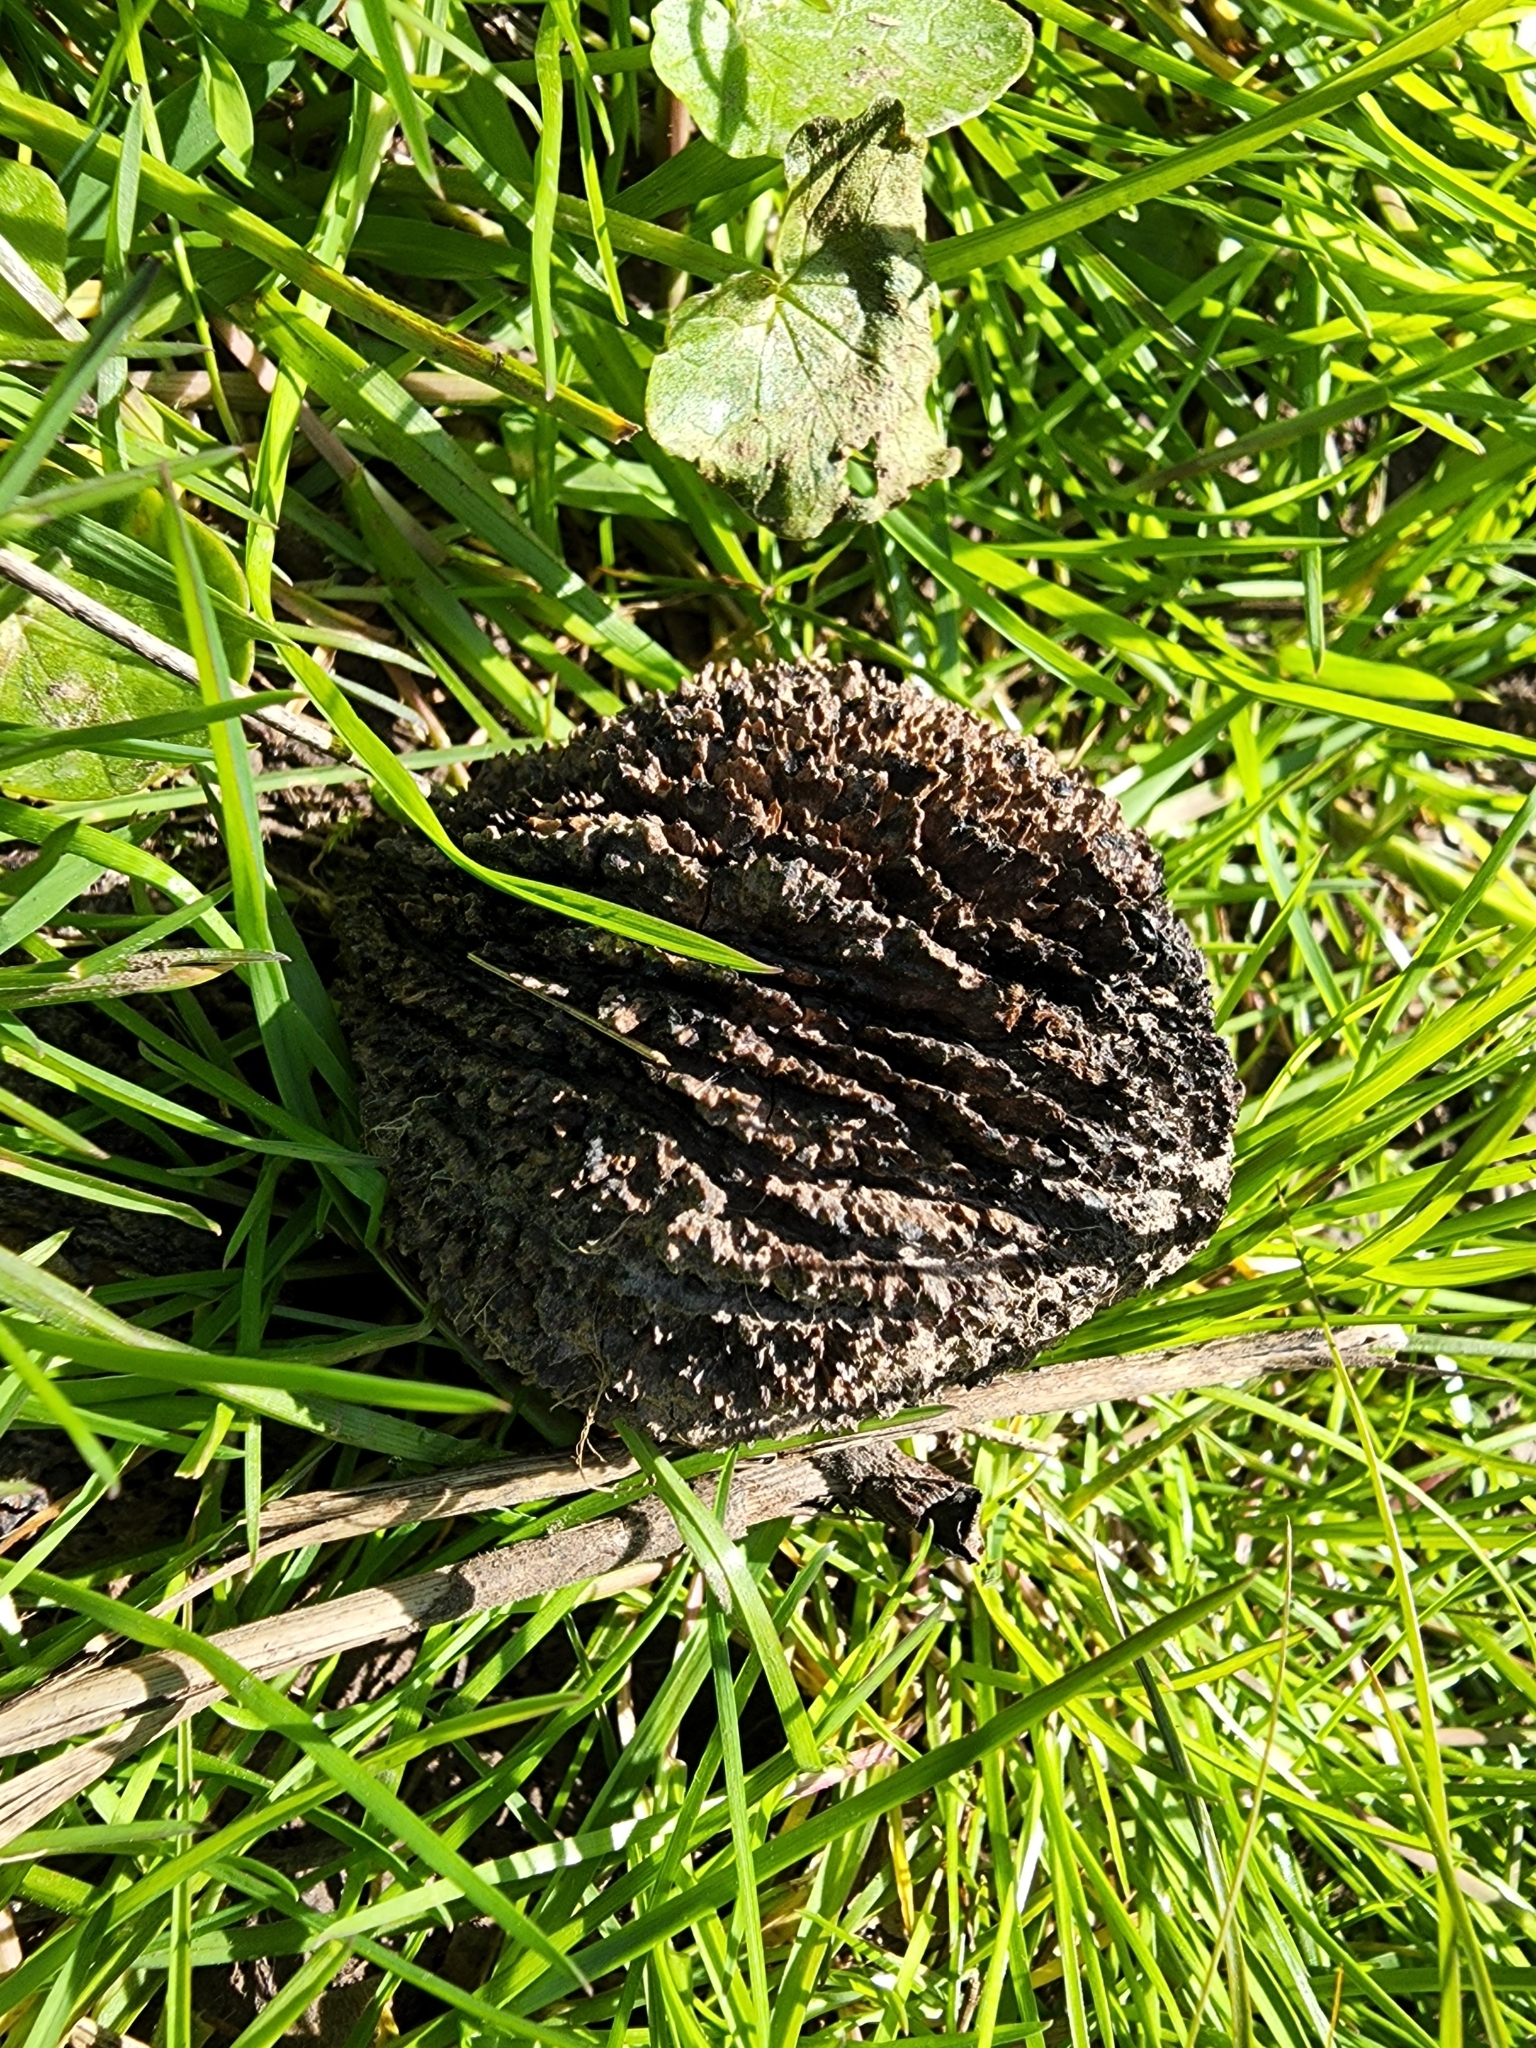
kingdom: Plantae
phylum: Tracheophyta
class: Magnoliopsida
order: Fagales
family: Juglandaceae
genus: Juglans
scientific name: Juglans nigra
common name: Black walnut
